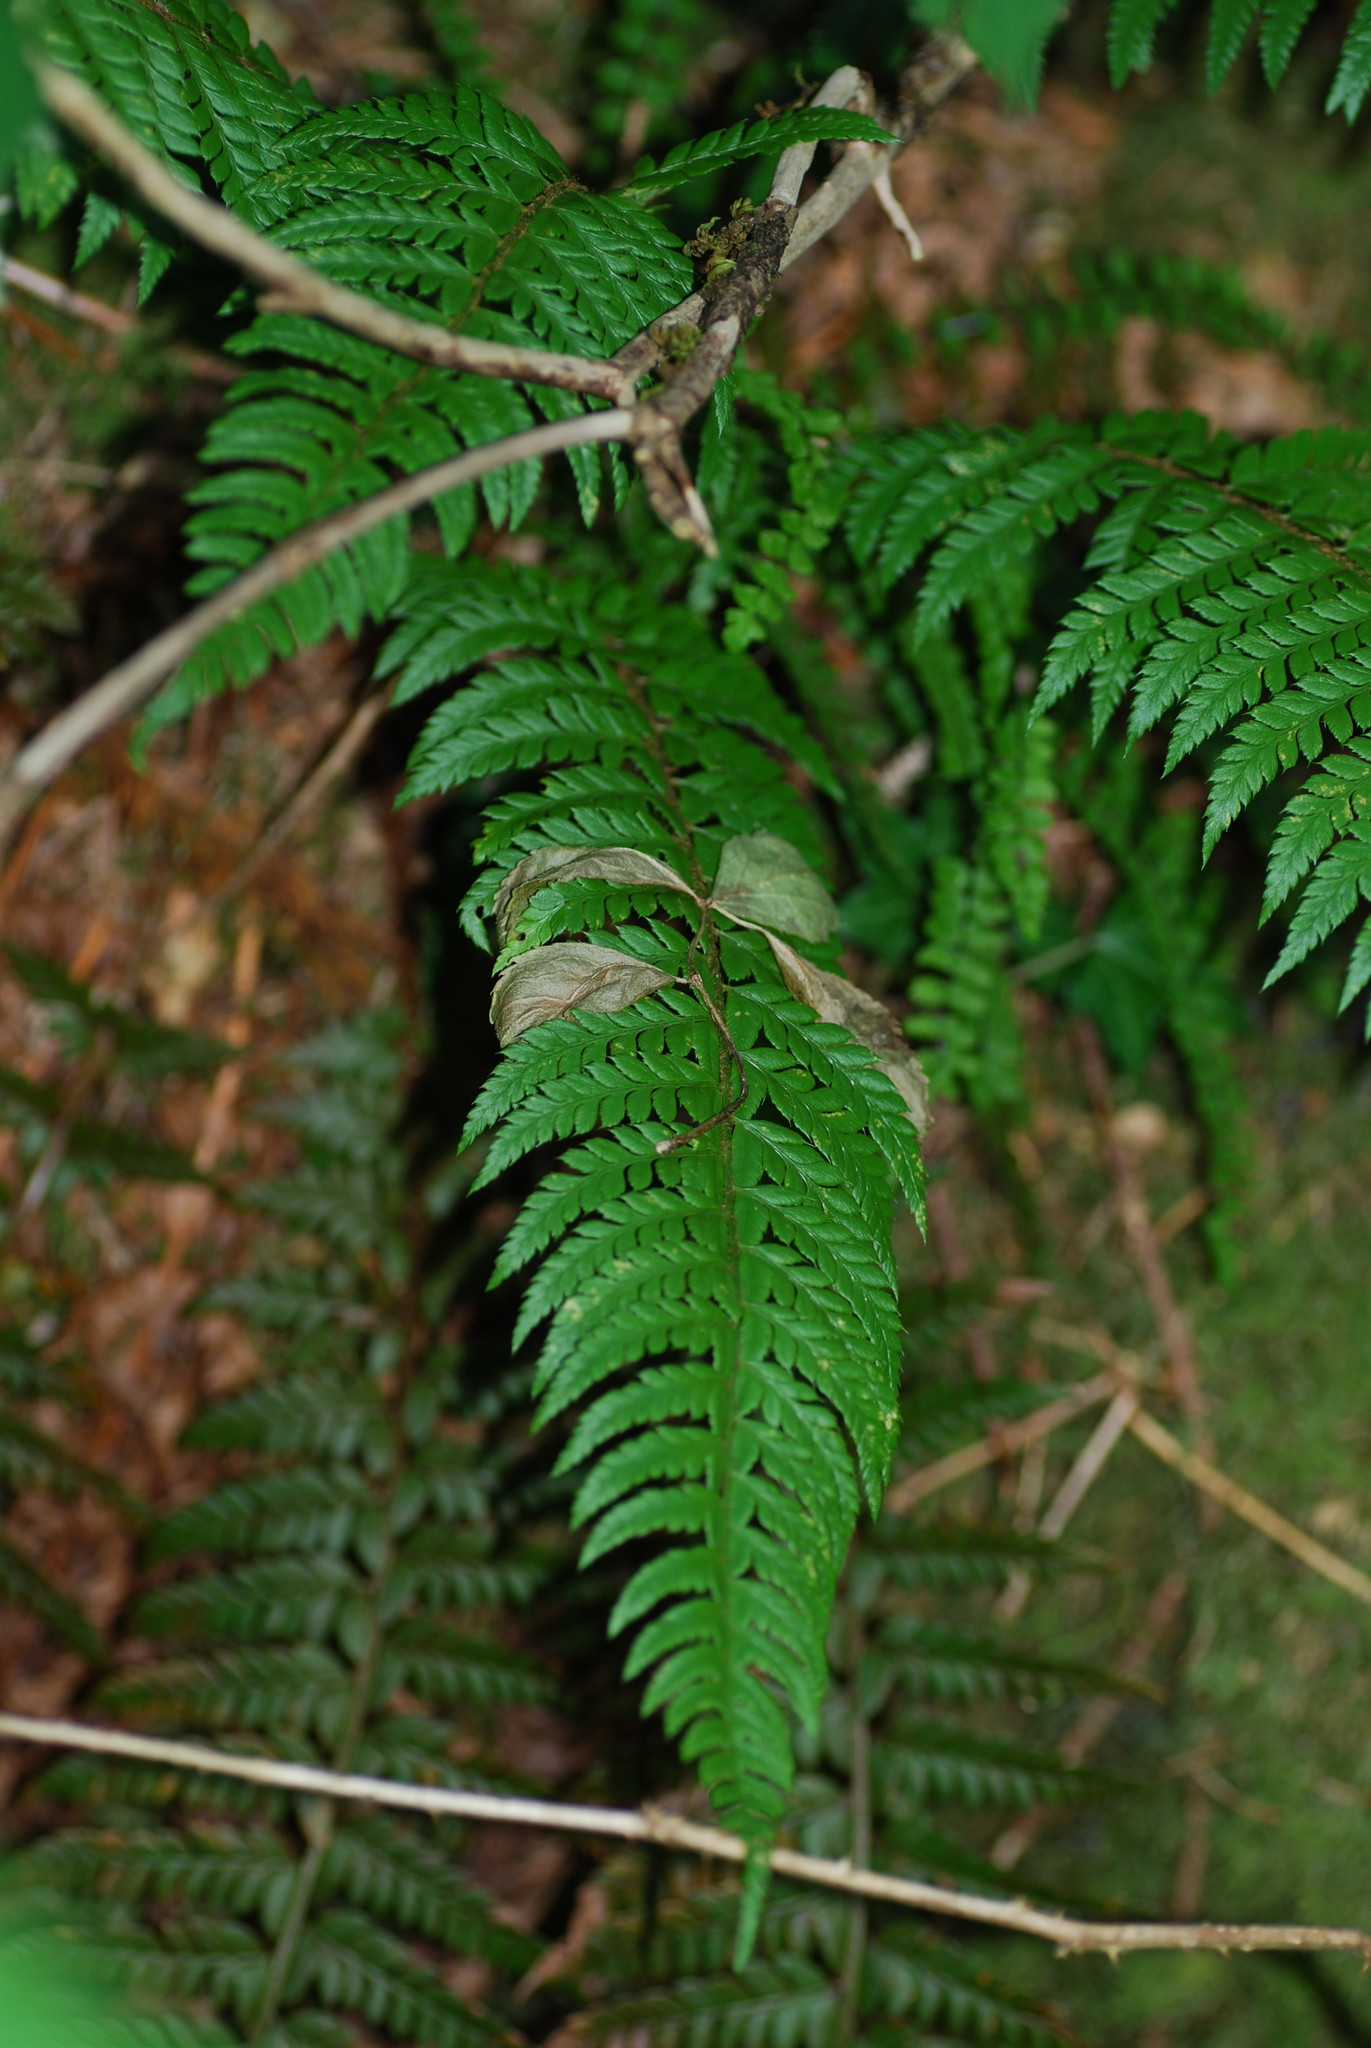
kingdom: Plantae
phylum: Tracheophyta
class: Polypodiopsida
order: Polypodiales
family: Dryopteridaceae
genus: Polystichum
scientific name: Polystichum aculeatum
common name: Hard shield-fern
